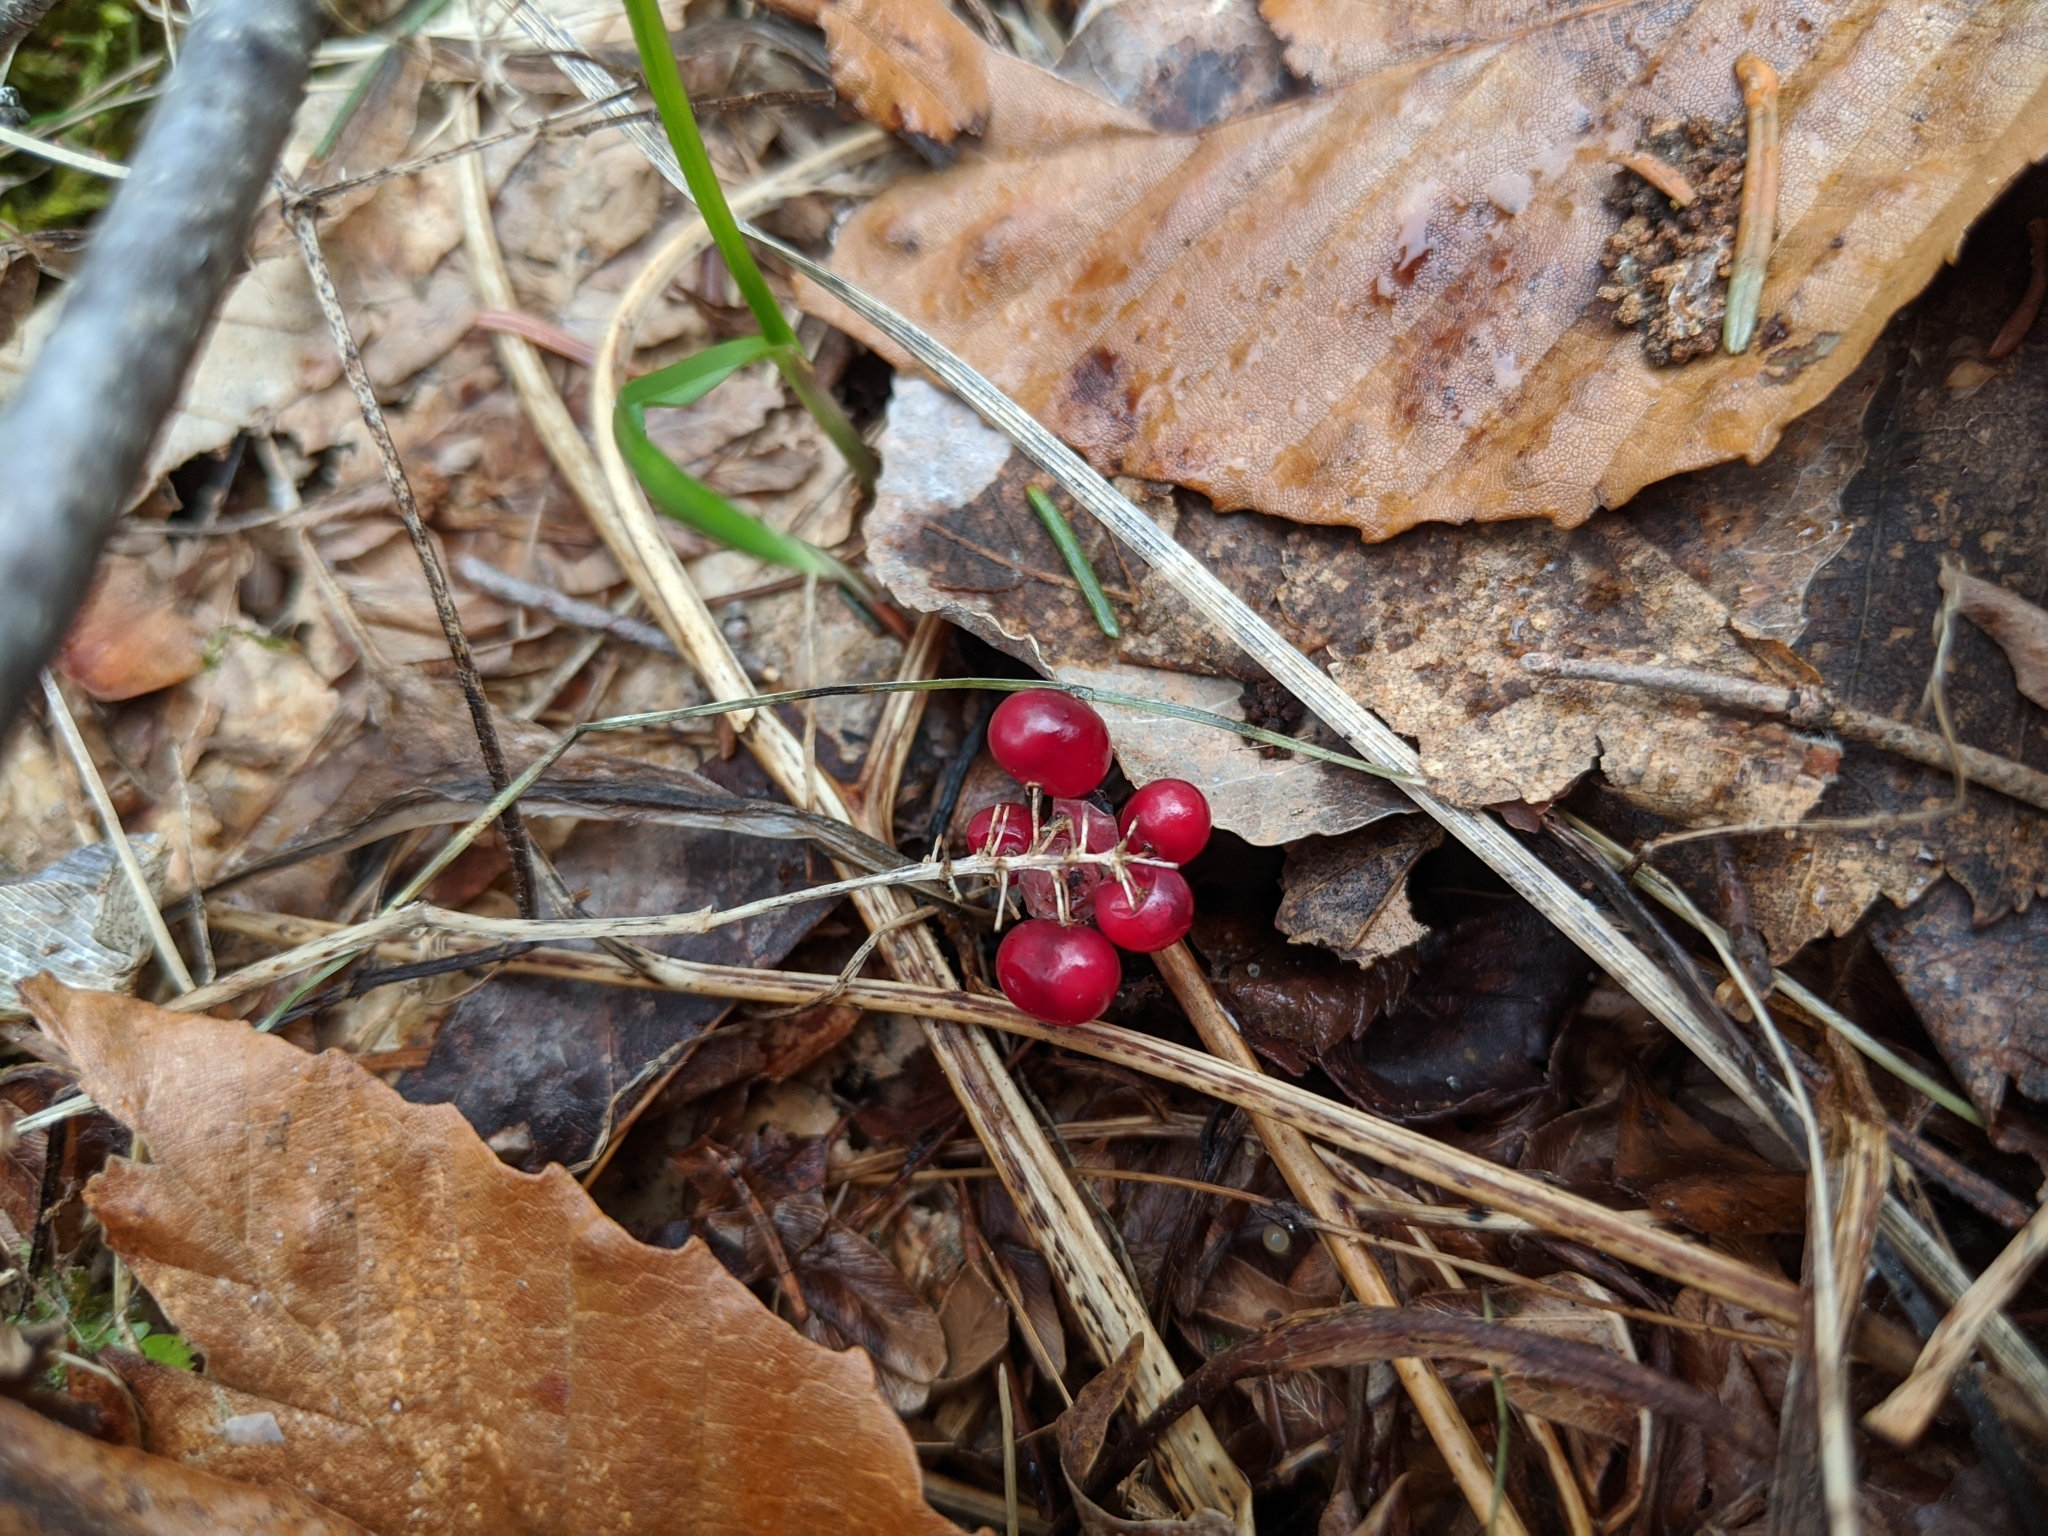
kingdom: Plantae
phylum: Tracheophyta
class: Liliopsida
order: Asparagales
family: Asparagaceae
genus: Maianthemum
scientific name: Maianthemum canadense
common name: False lily-of-the-valley
